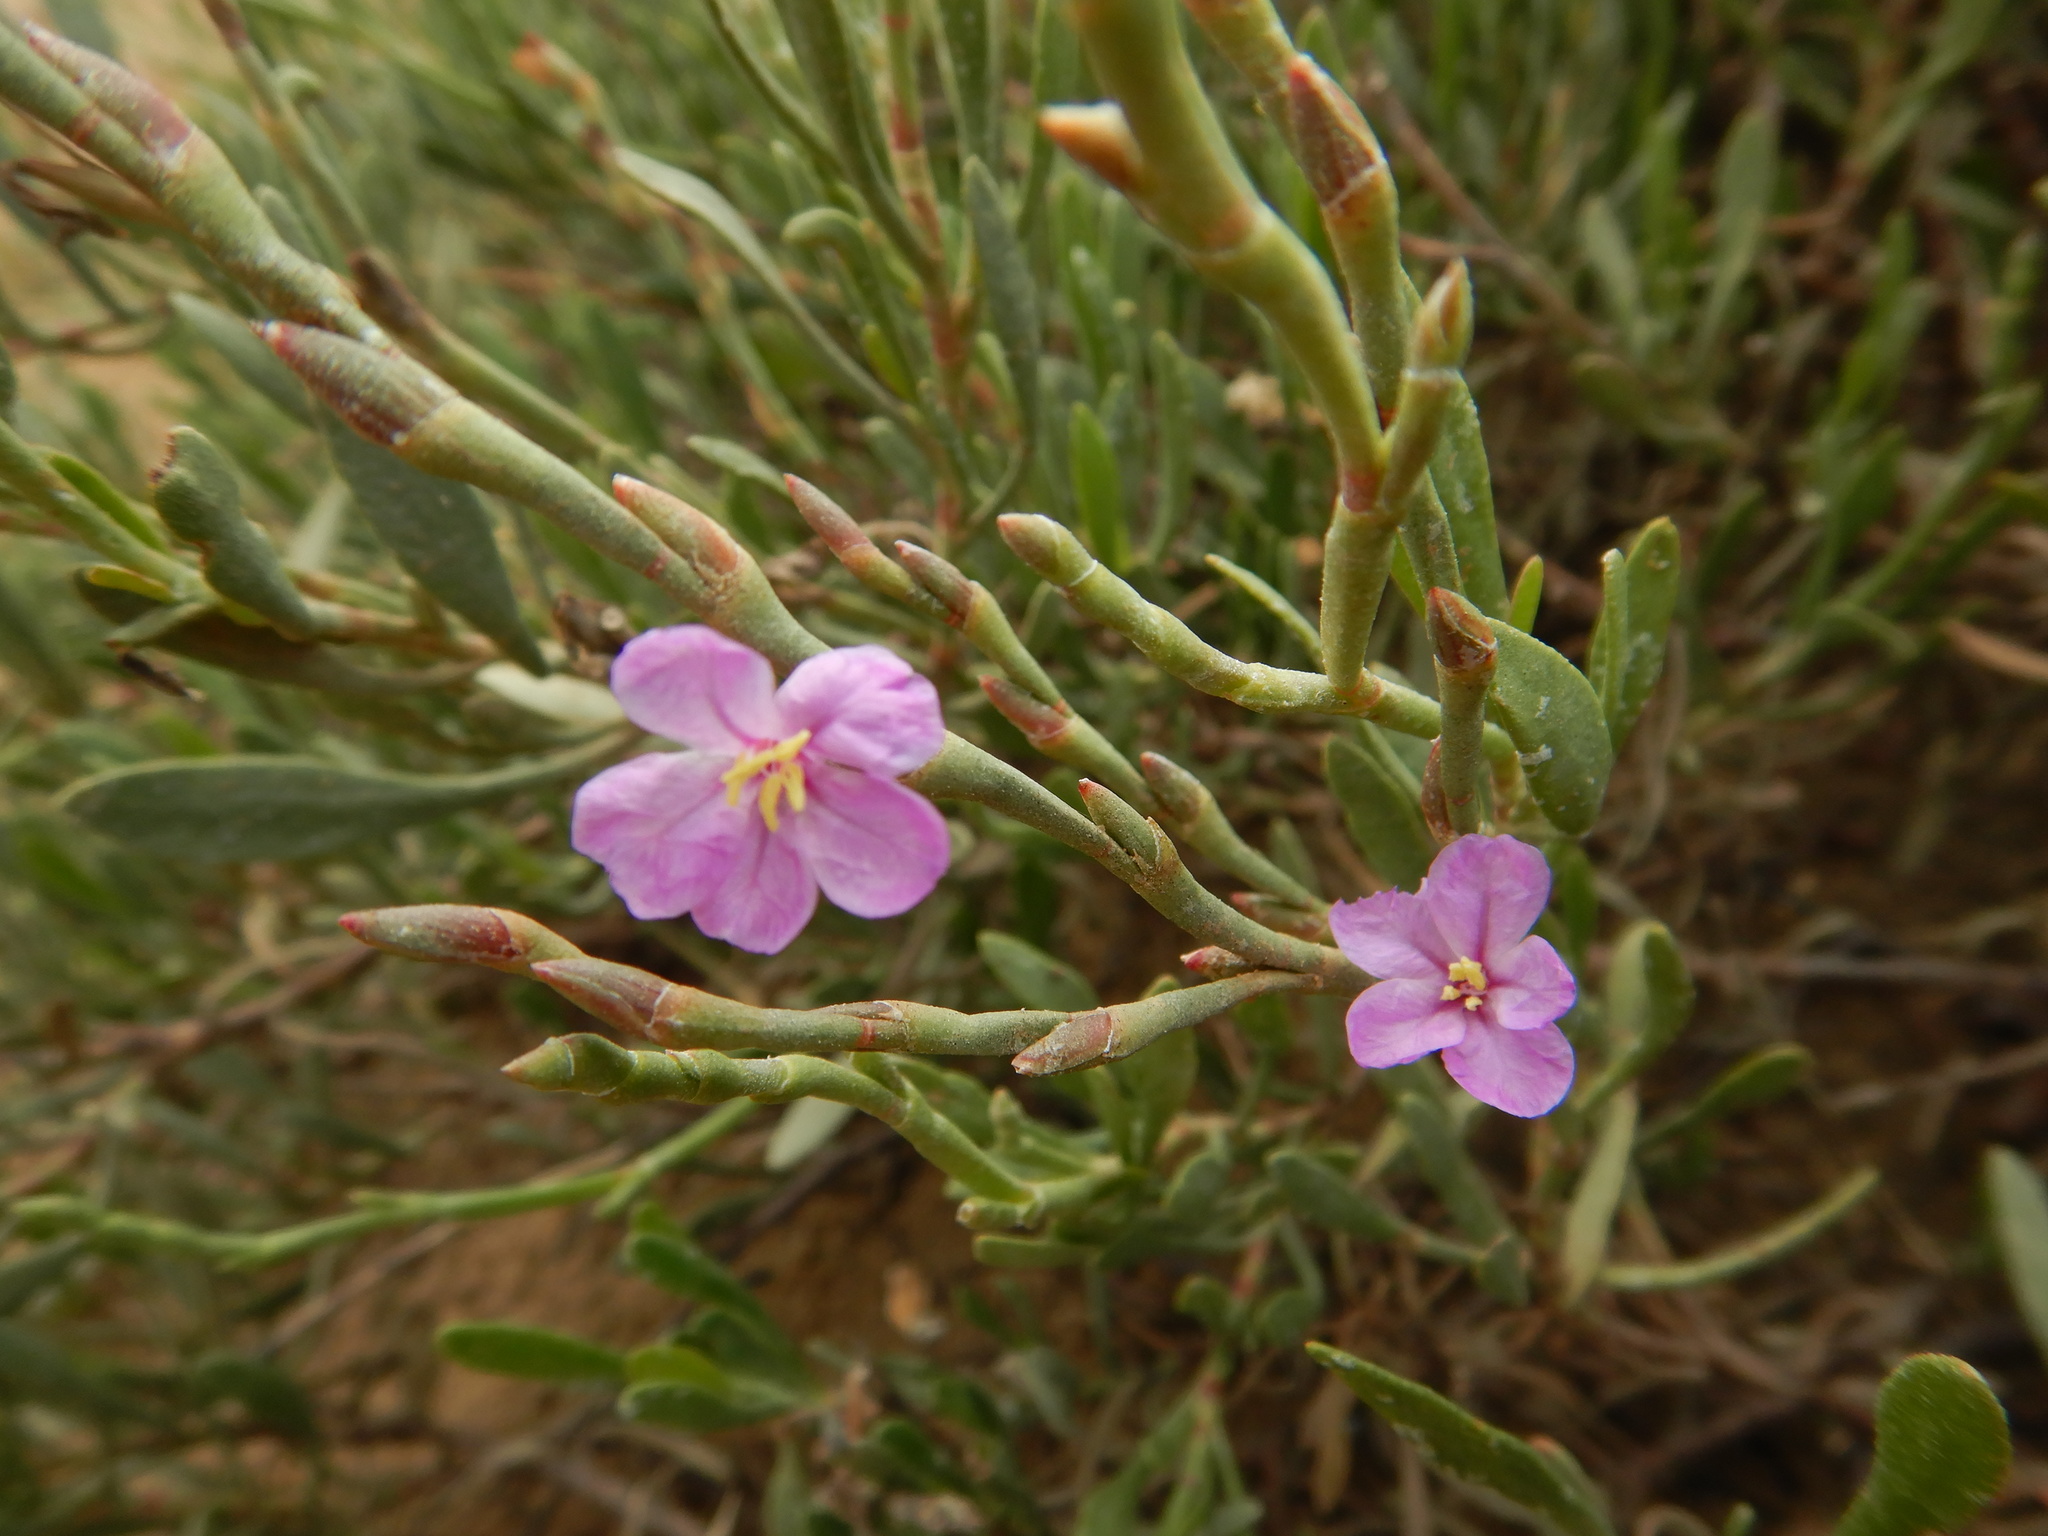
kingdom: Plantae
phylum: Tracheophyta
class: Magnoliopsida
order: Caryophyllales
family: Plumbaginaceae
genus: Limoniastrum
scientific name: Limoniastrum monopetalum
